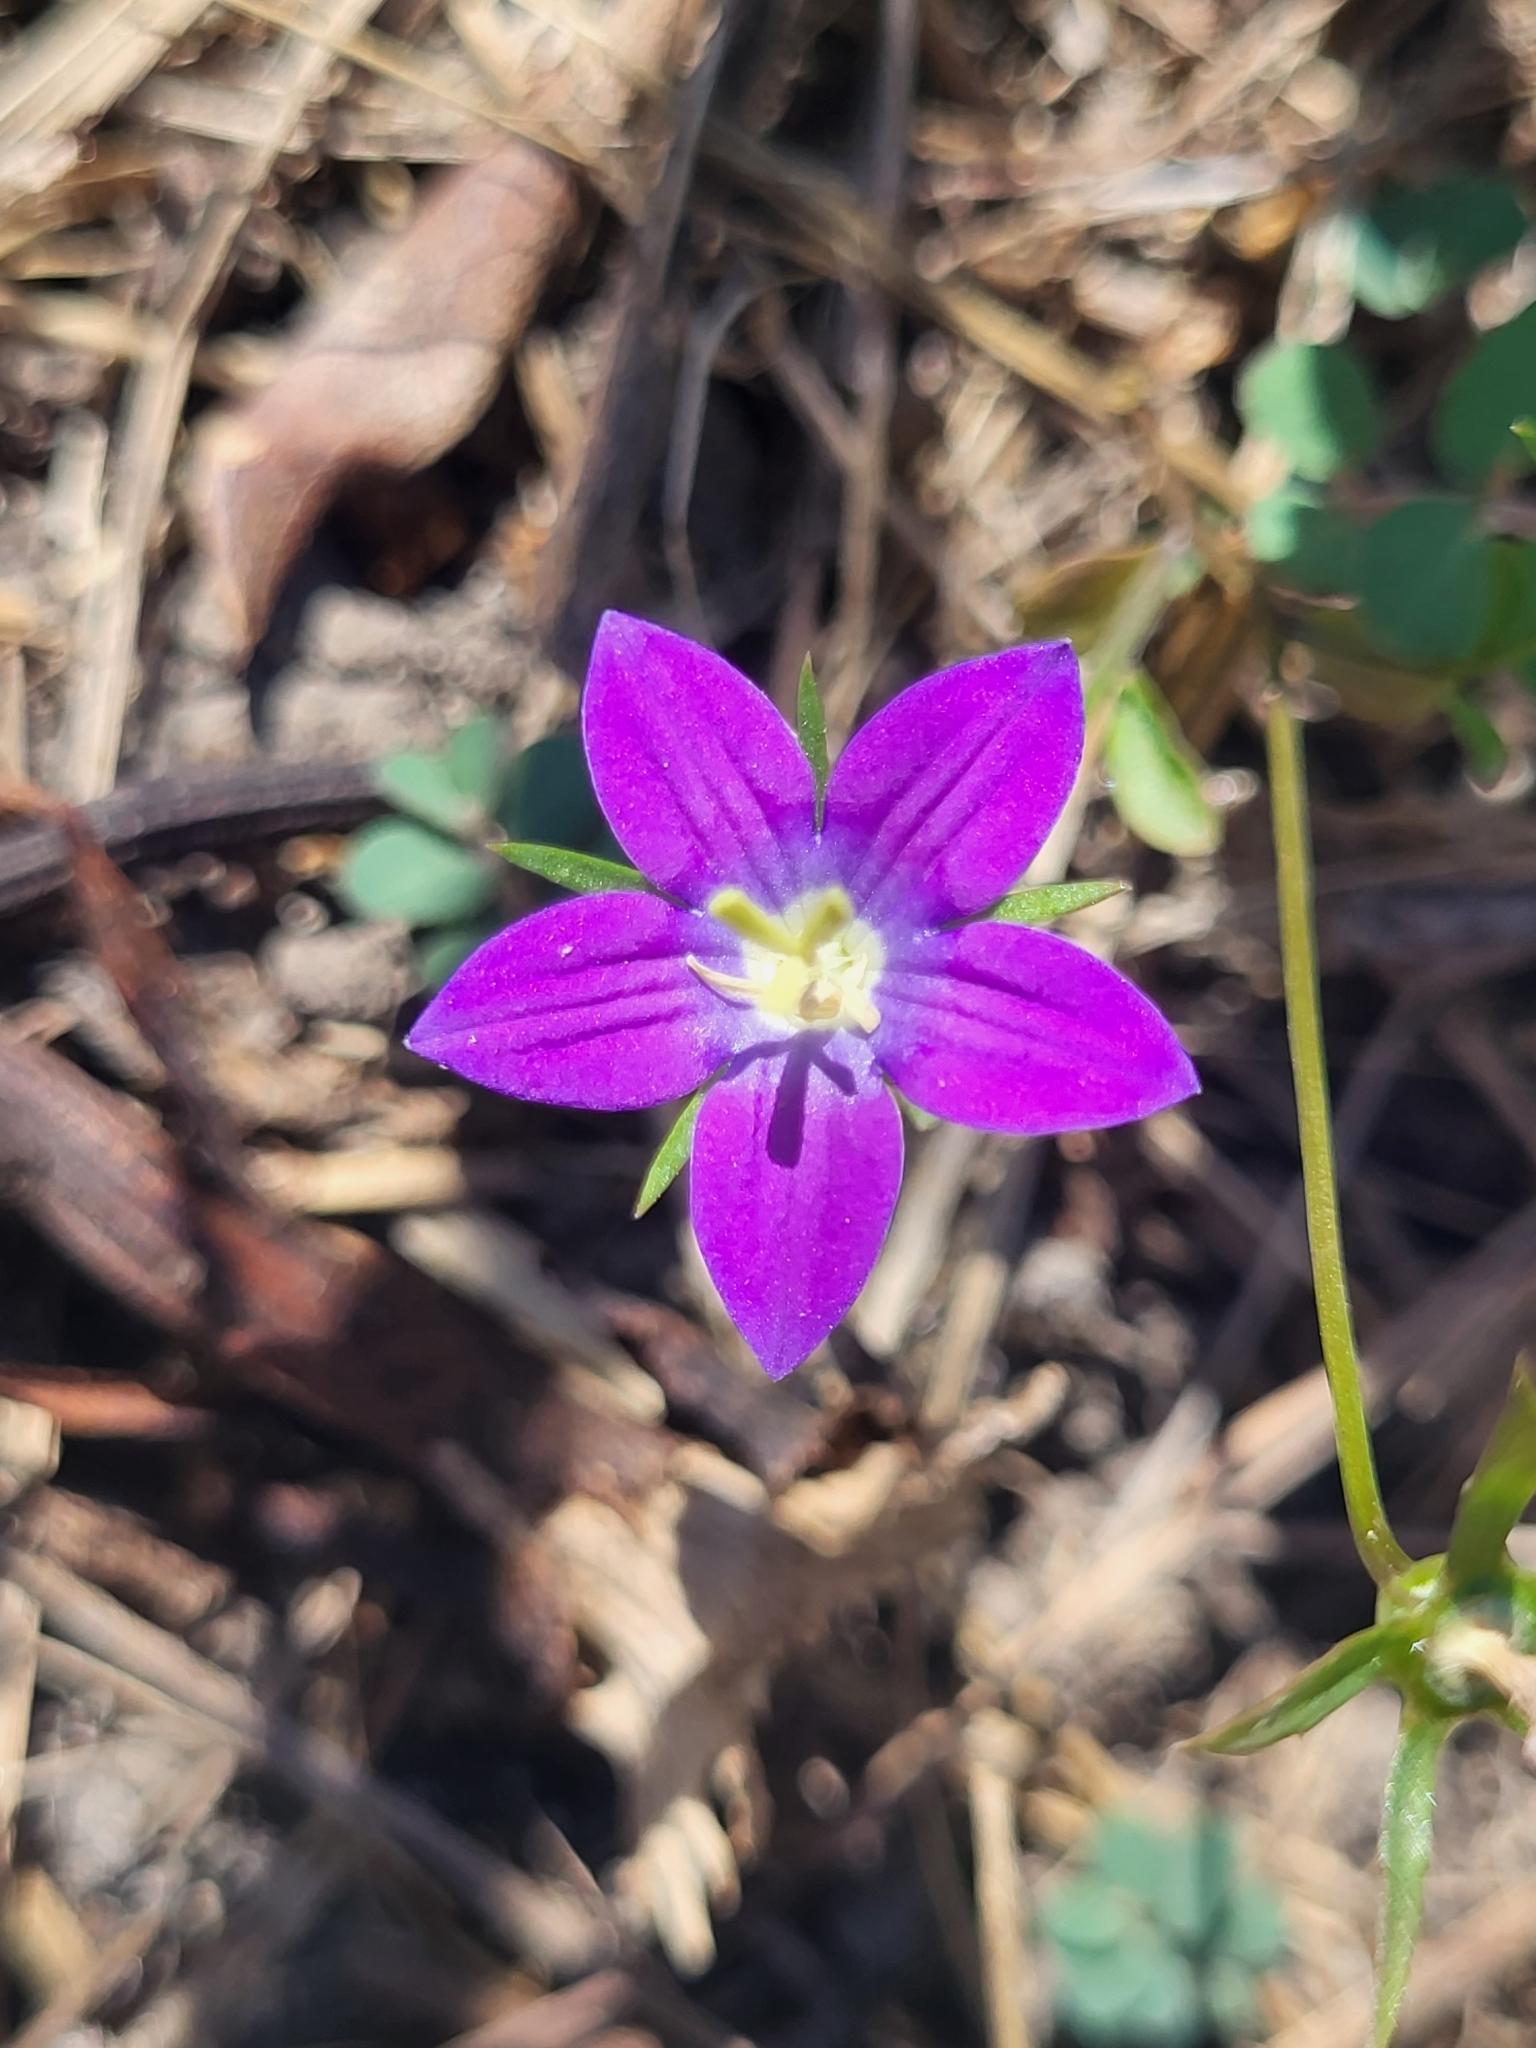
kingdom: Plantae
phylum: Tracheophyta
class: Magnoliopsida
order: Asterales
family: Campanulaceae
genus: Legousia
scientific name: Legousia speculum-veneris
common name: Large venus's-looking-glass
